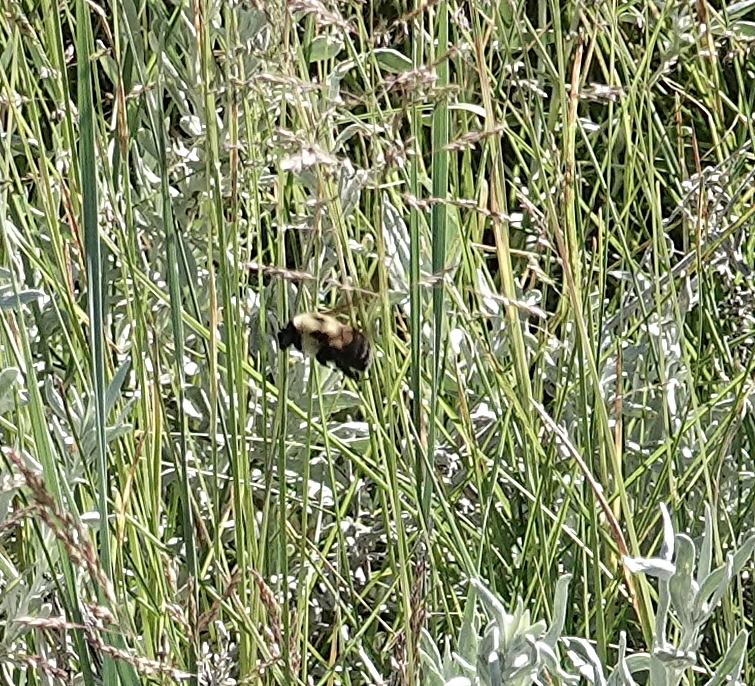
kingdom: Animalia
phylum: Arthropoda
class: Insecta
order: Hymenoptera
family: Apidae
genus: Bombus
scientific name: Bombus griseocollis
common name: Brown-belted bumble bee
